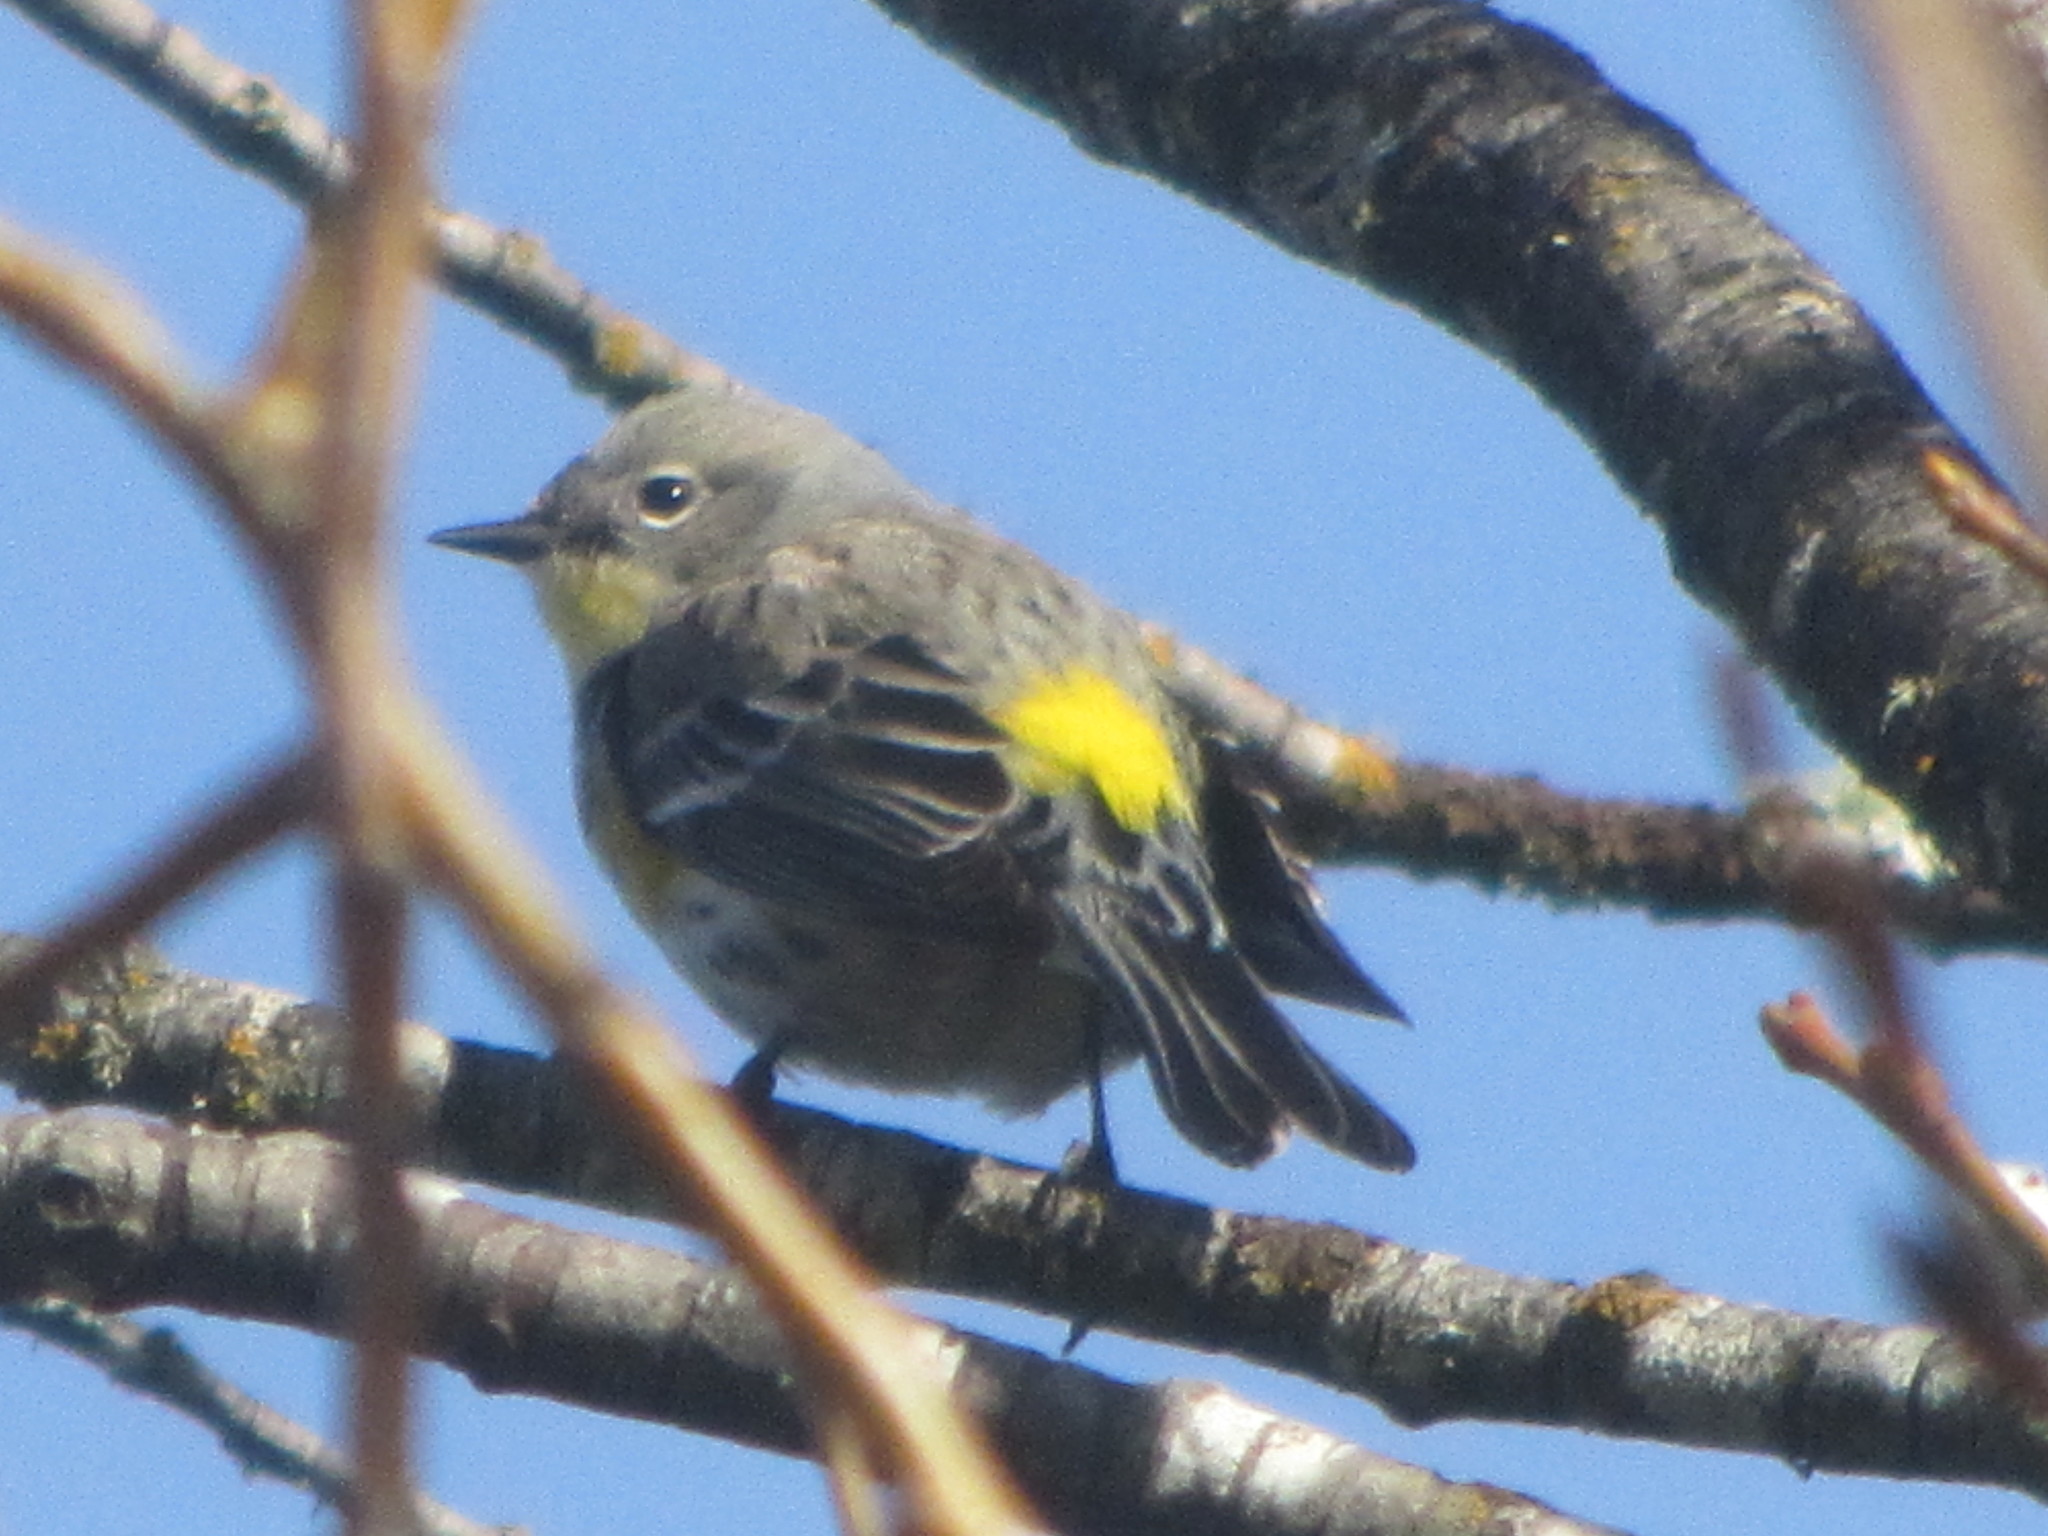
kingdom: Animalia
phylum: Chordata
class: Aves
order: Passeriformes
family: Parulidae
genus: Setophaga
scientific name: Setophaga coronata
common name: Myrtle warbler
